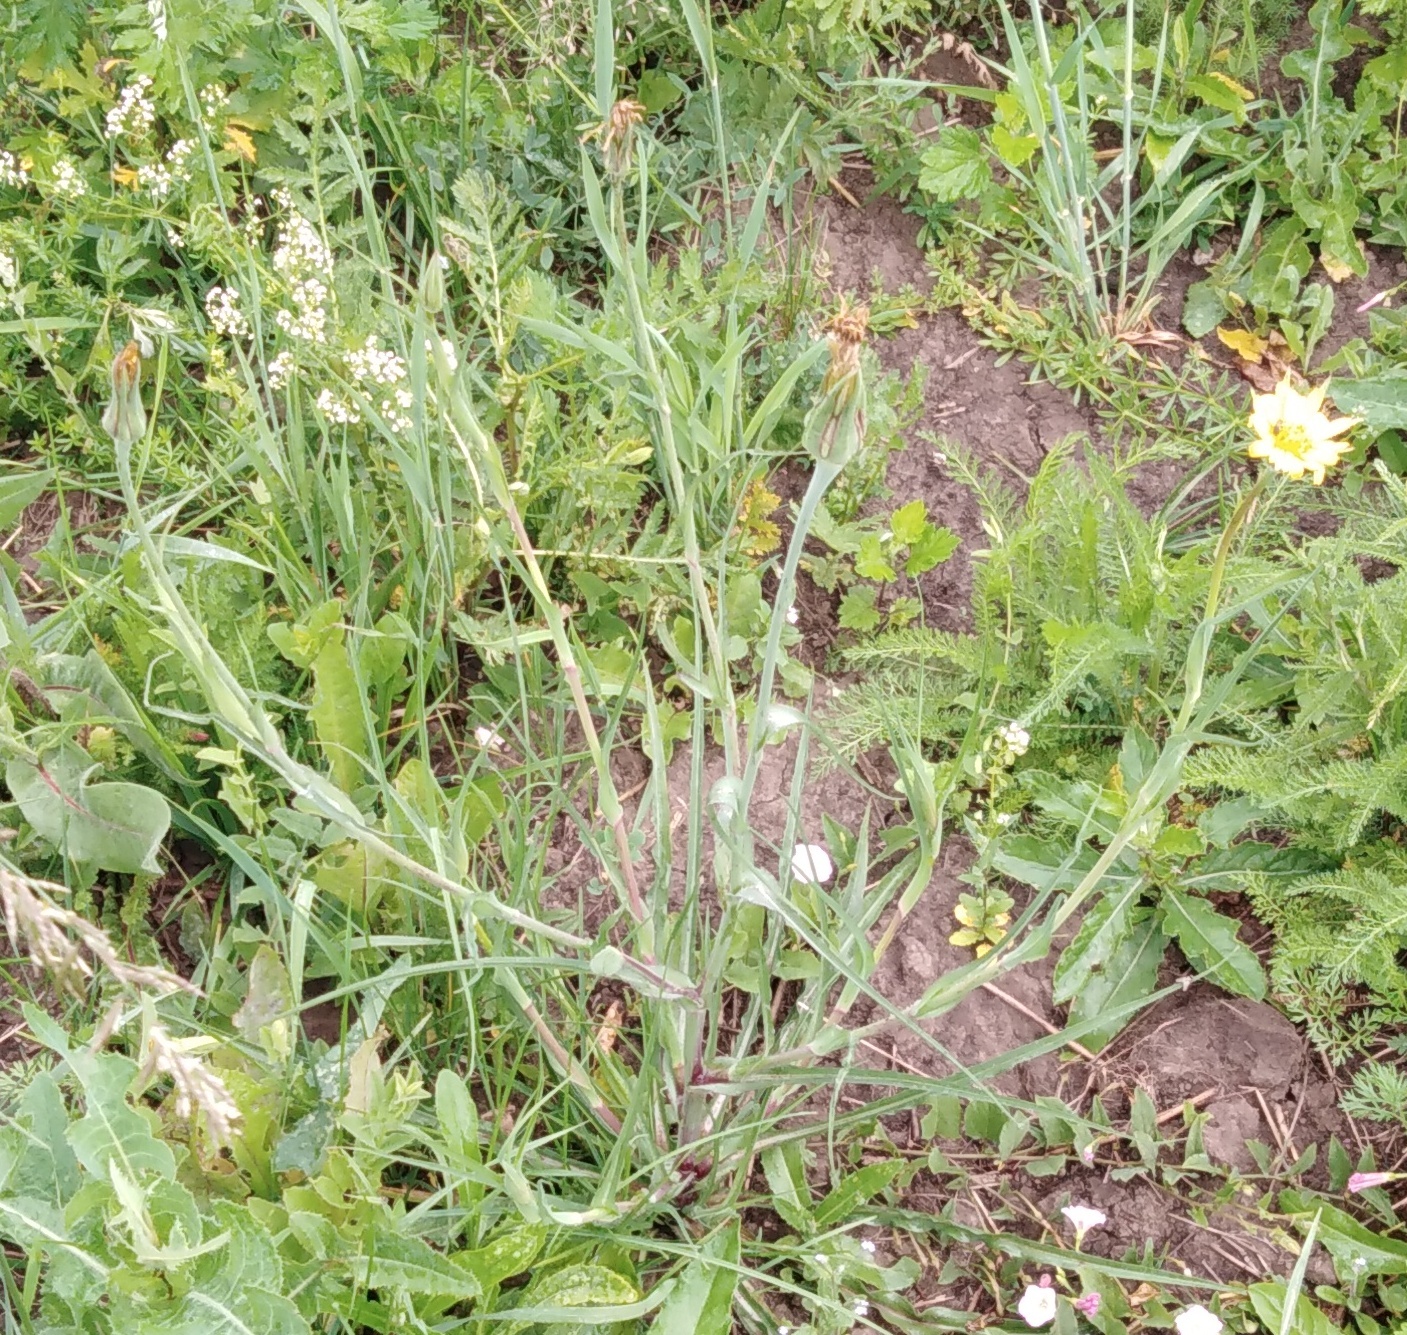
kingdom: Plantae
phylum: Tracheophyta
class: Magnoliopsida
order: Asterales
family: Asteraceae
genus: Tragopogon
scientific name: Tragopogon pratensis
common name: Goat's-beard
